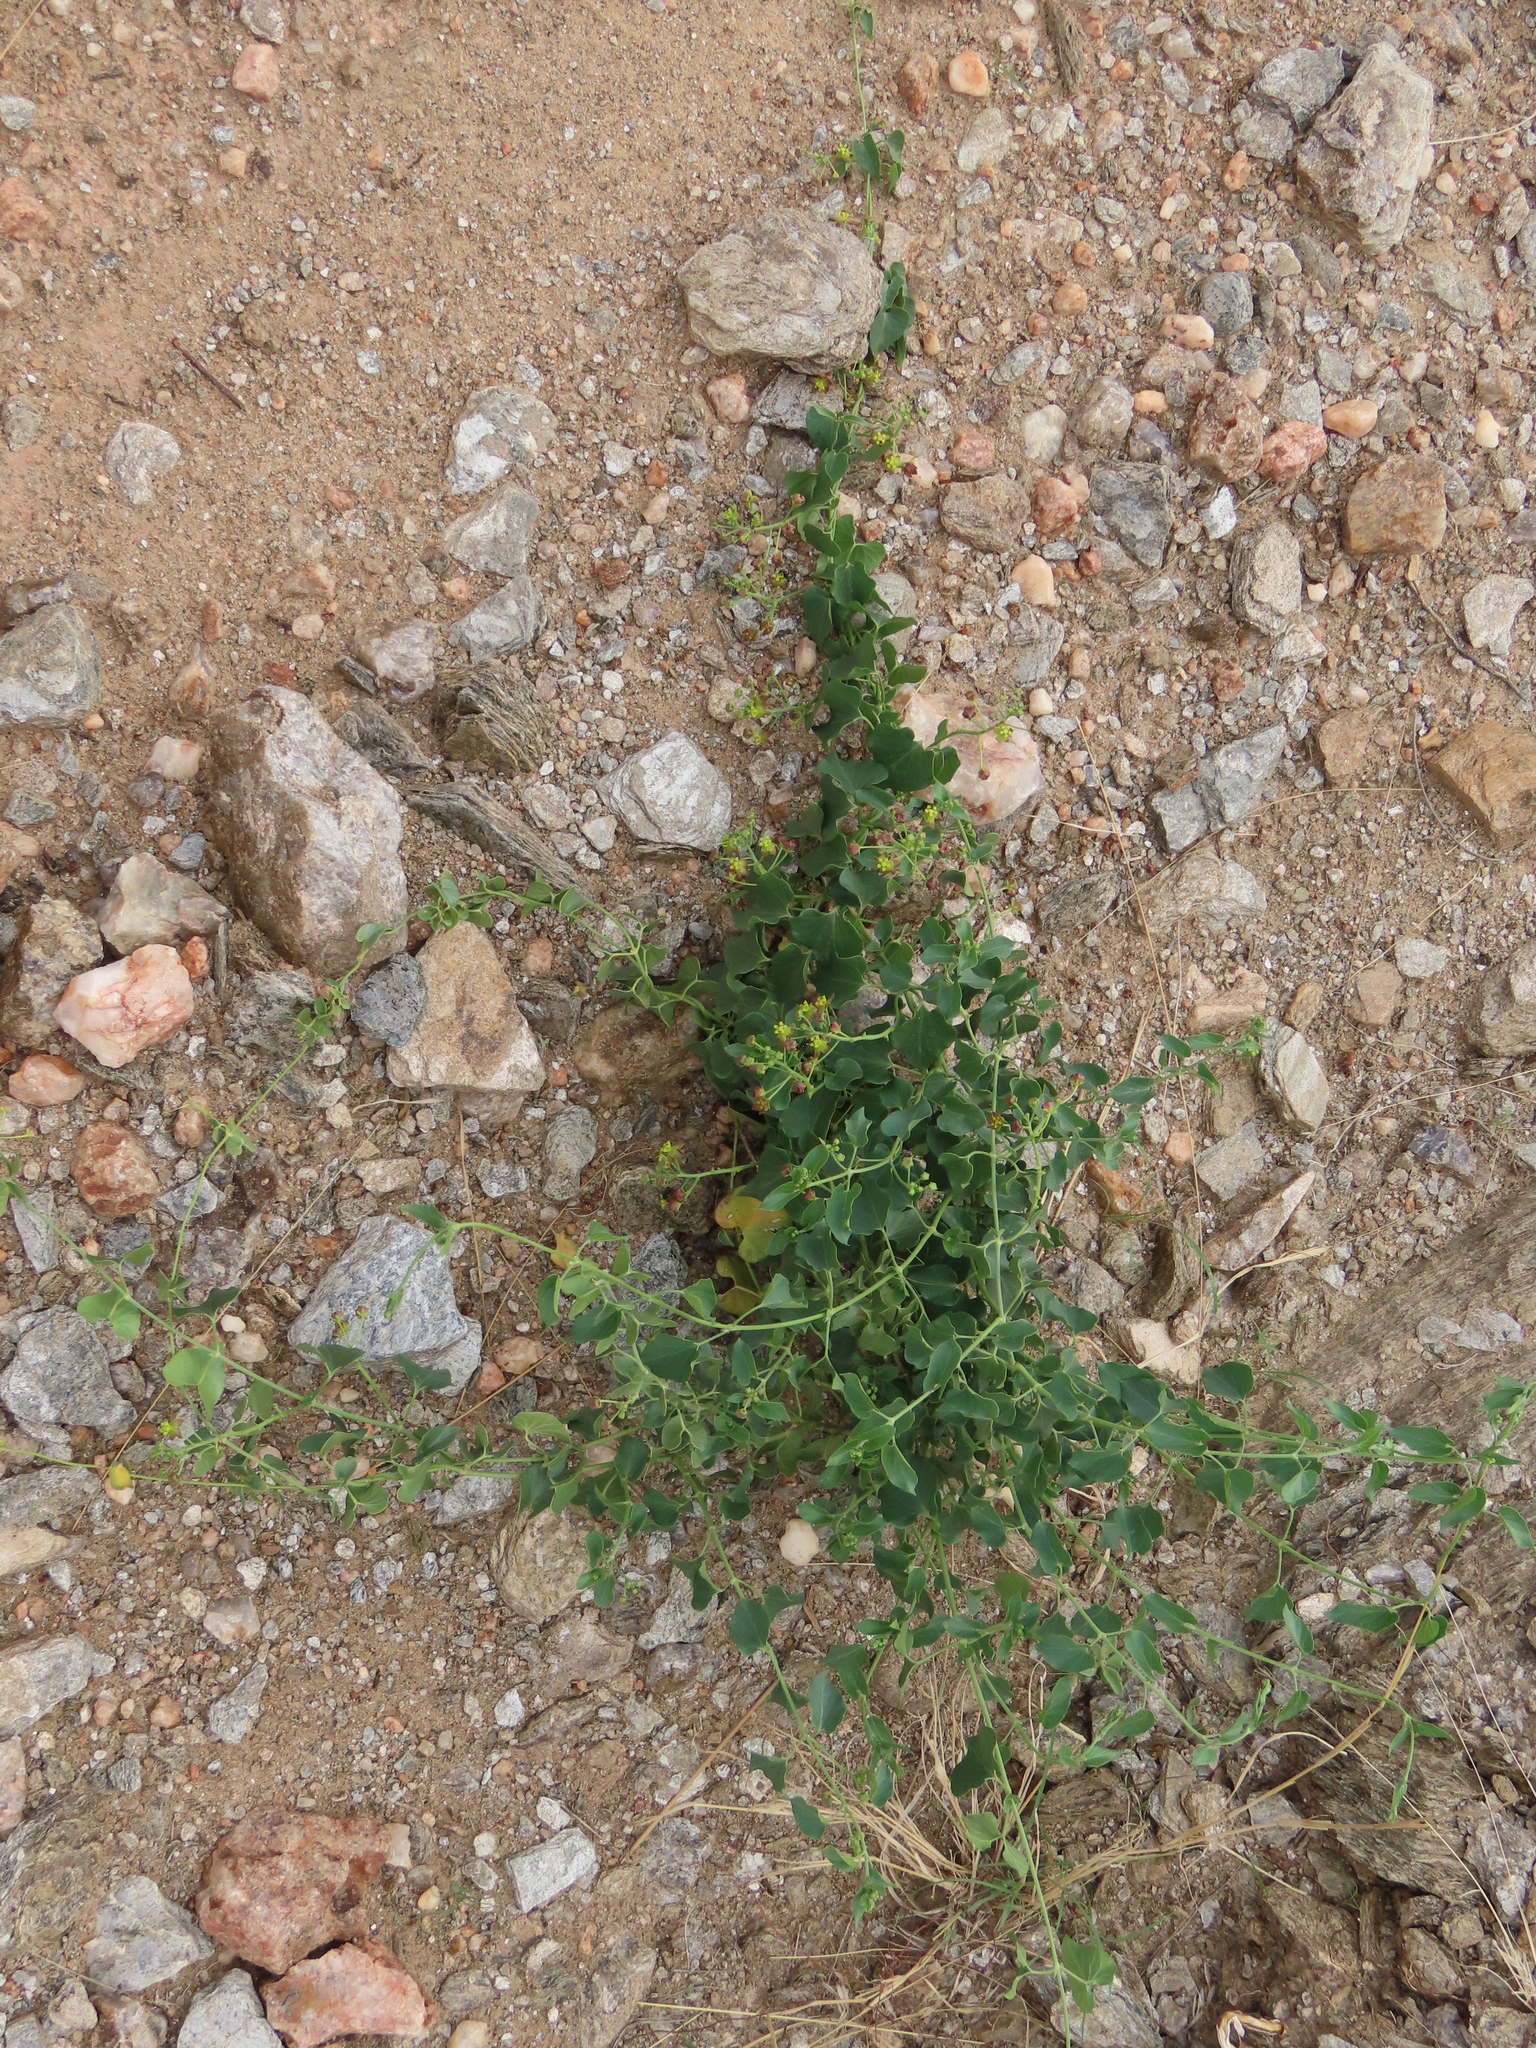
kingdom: Plantae
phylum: Tracheophyta
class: Magnoliopsida
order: Gentianales
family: Apocynaceae
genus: Cynanchum
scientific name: Cynanchum
